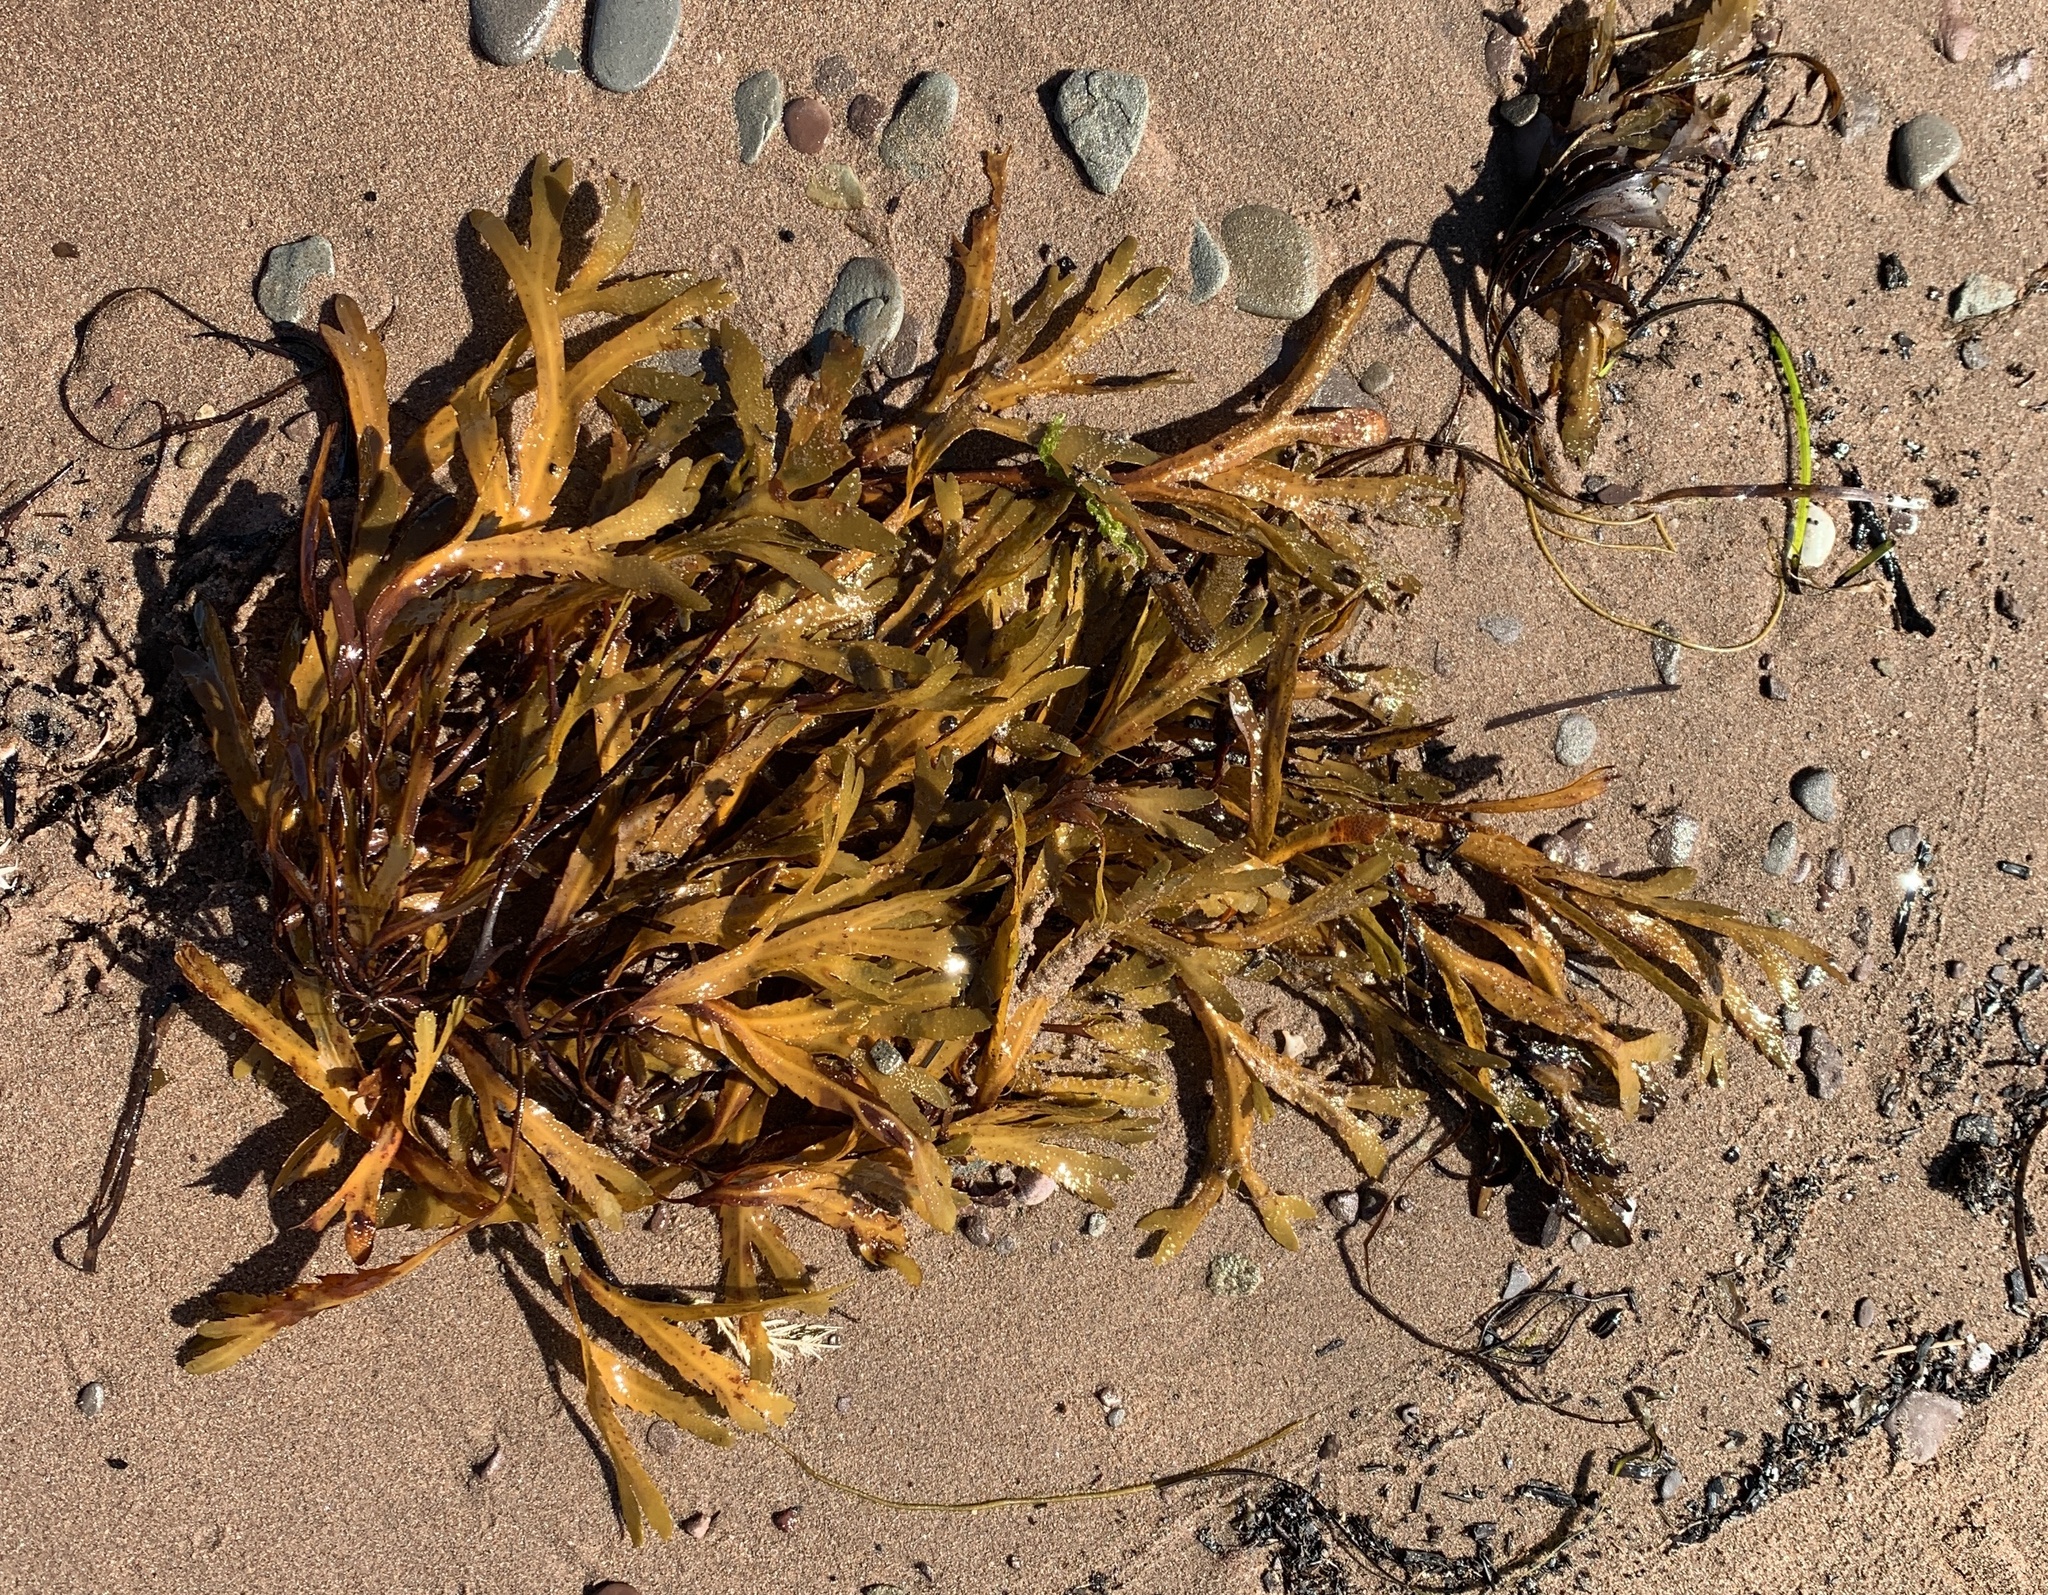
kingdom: Chromista
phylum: Ochrophyta
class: Phaeophyceae
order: Fucales
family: Fucaceae
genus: Fucus
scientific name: Fucus serratus
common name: Toothed wrack
